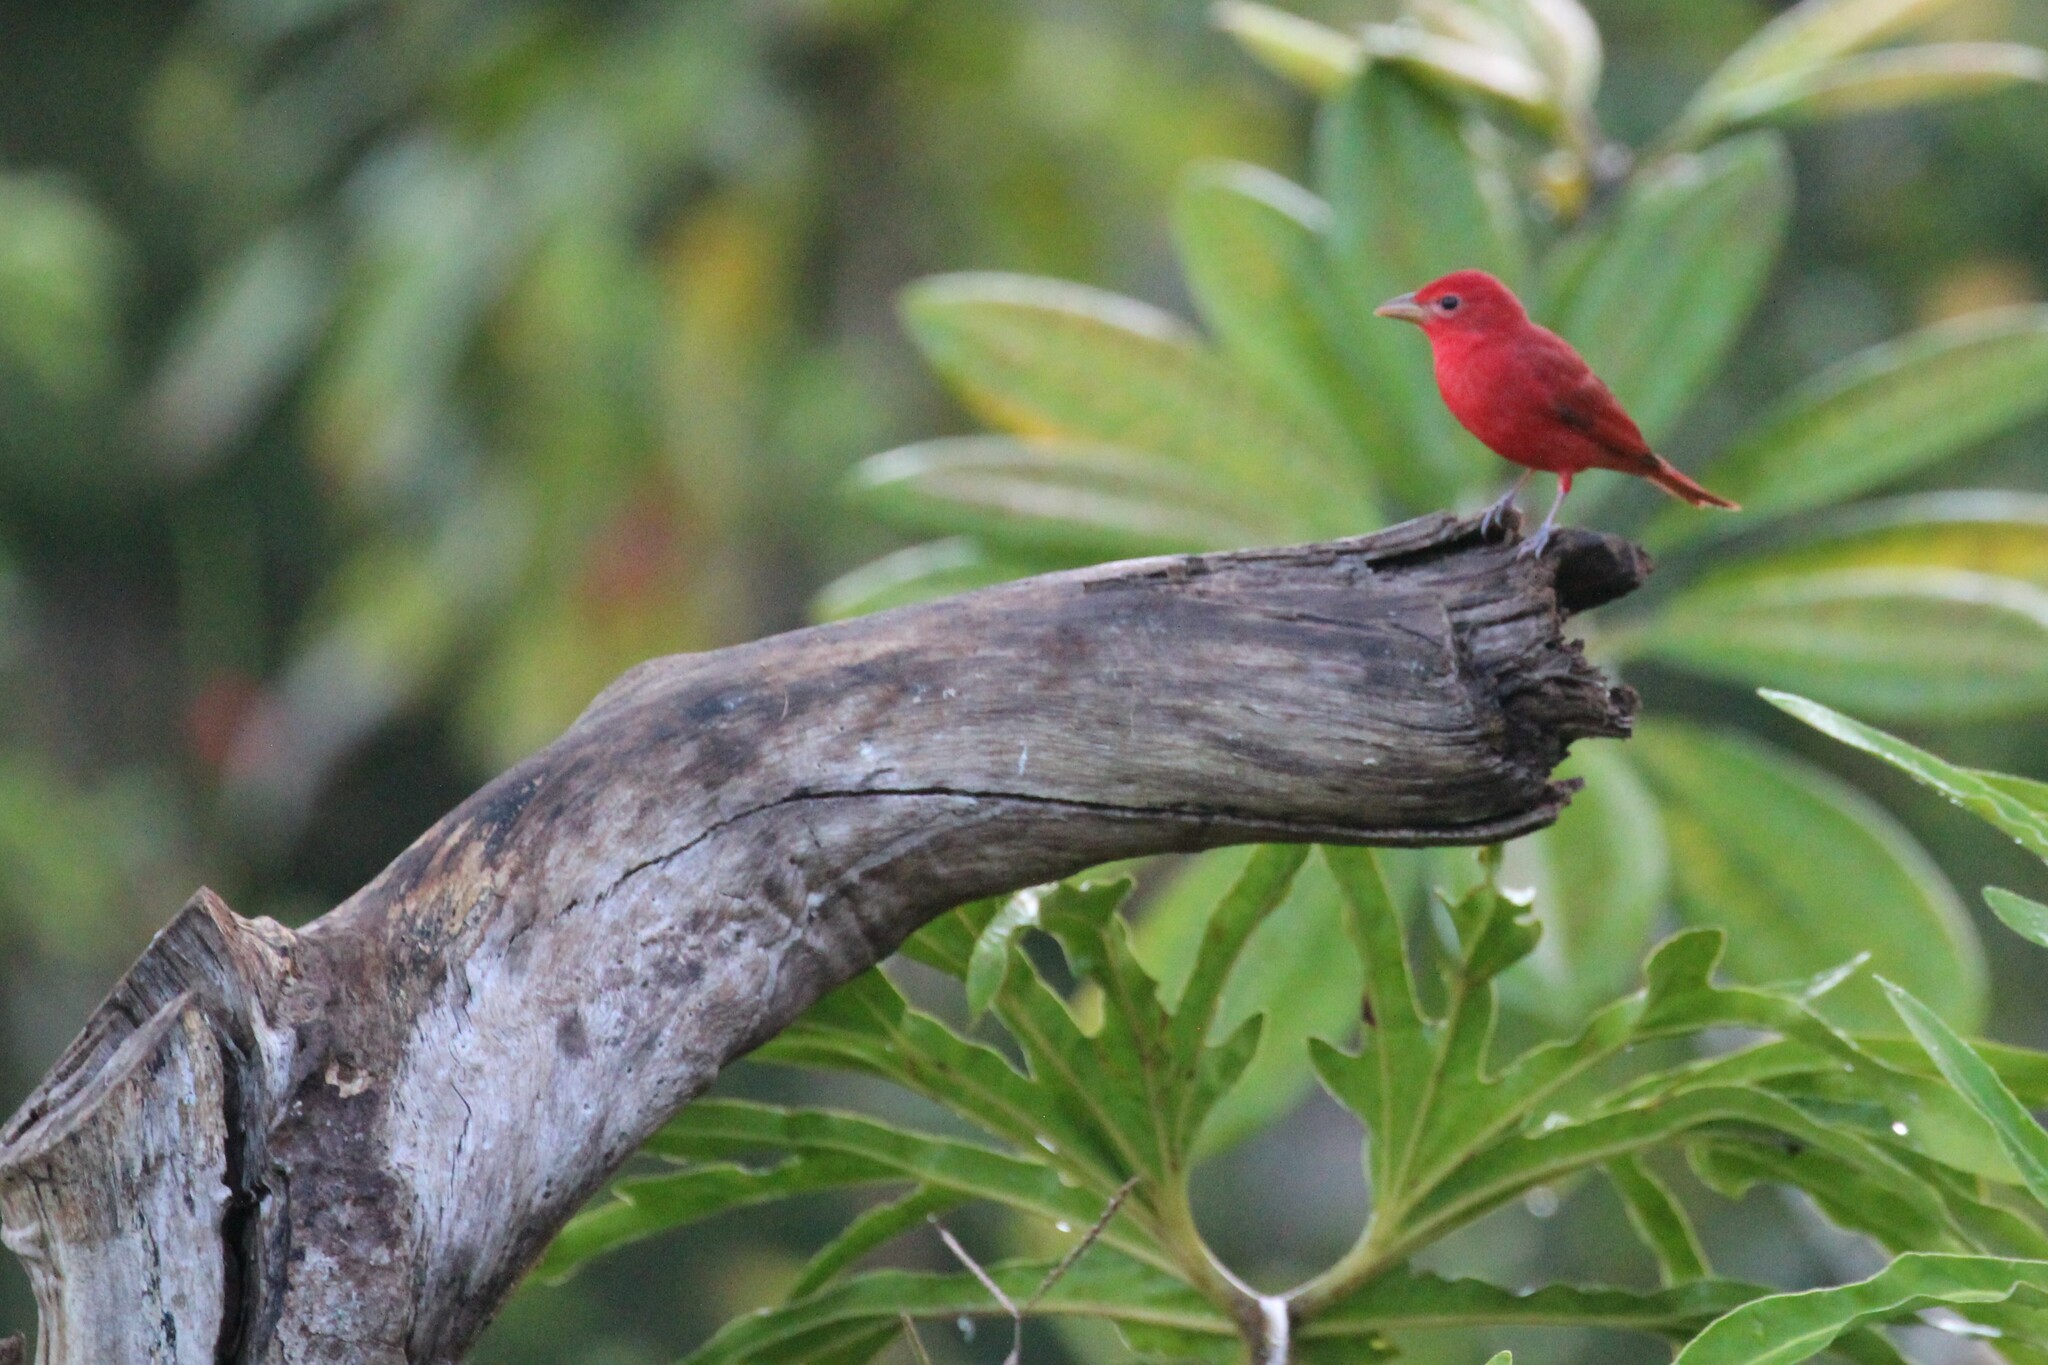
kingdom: Animalia
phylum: Chordata
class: Aves
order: Passeriformes
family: Cardinalidae
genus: Piranga
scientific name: Piranga rubra
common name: Summer tanager
